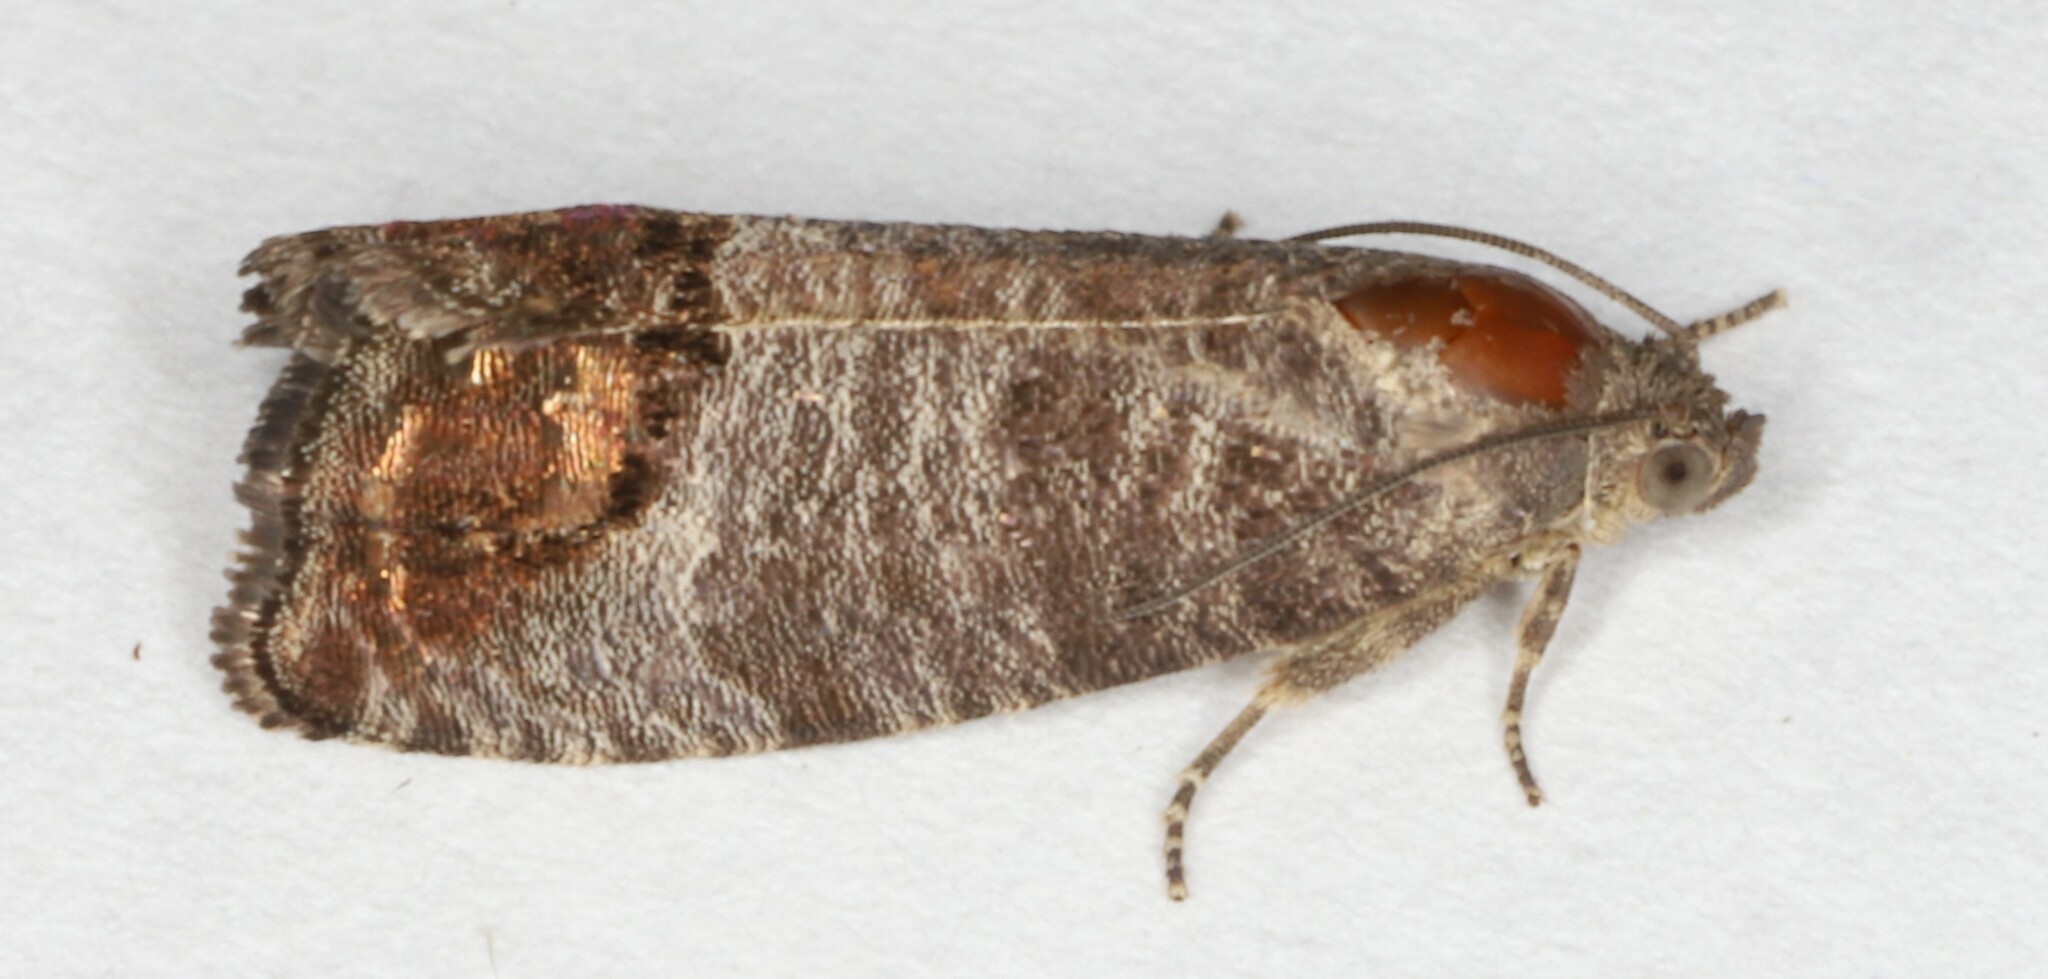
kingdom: Animalia
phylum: Arthropoda
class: Insecta
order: Lepidoptera
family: Tortricidae
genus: Cydia
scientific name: Cydia pomonella
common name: Codling moth
